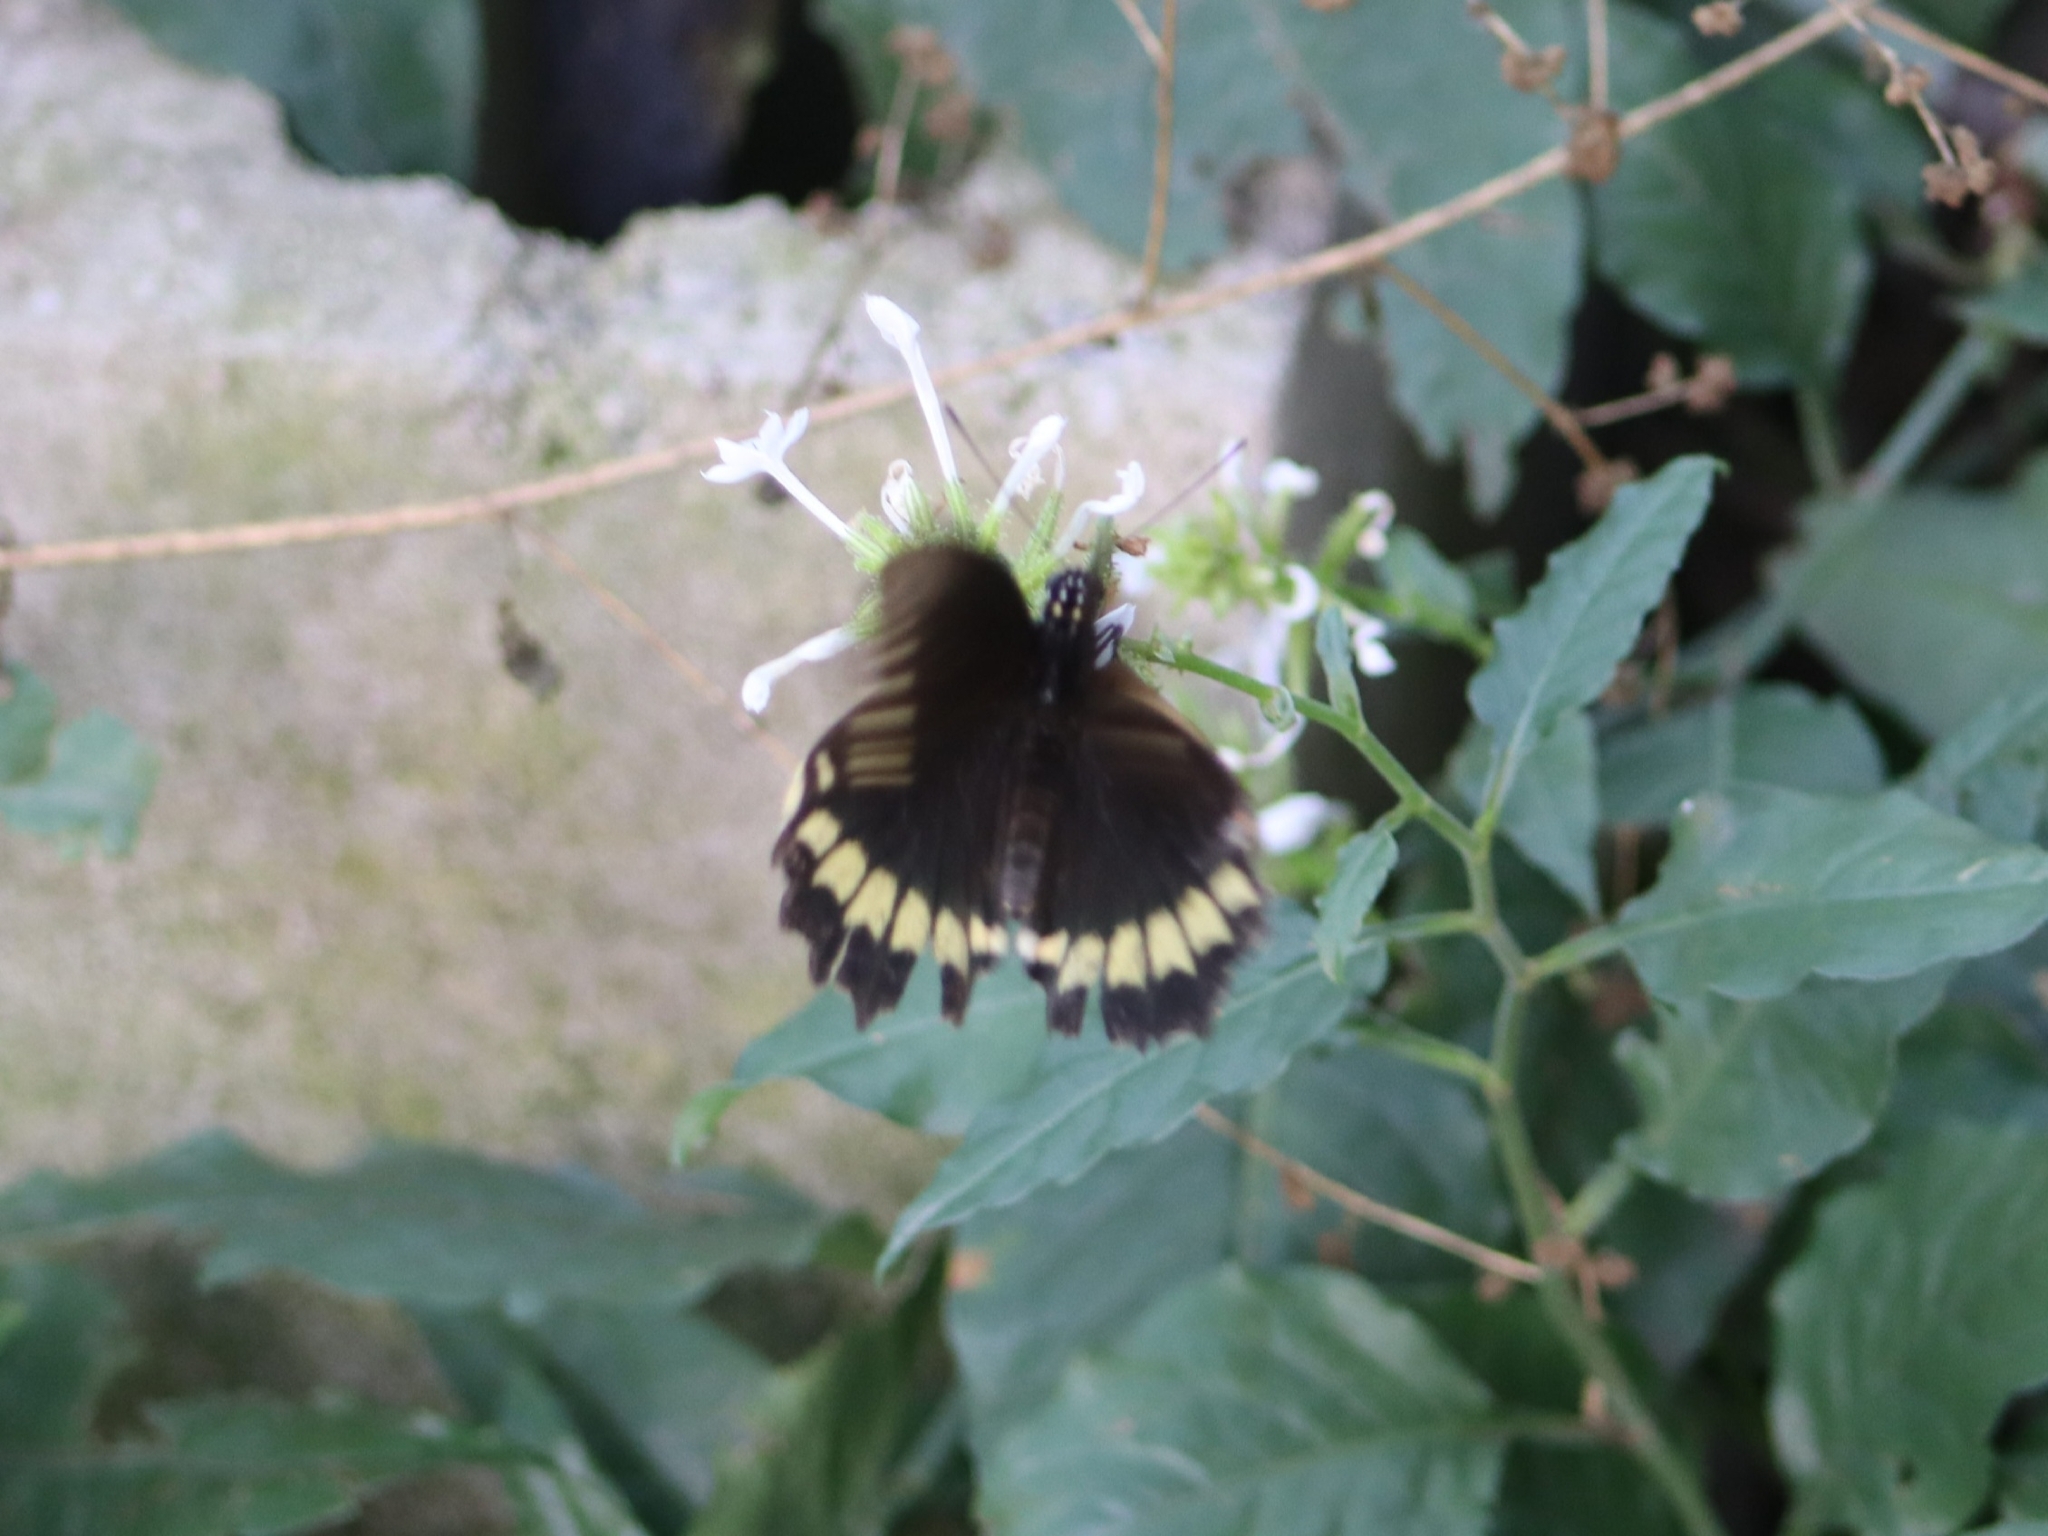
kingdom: Animalia
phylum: Arthropoda
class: Insecta
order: Lepidoptera
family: Papilionidae
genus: Battus
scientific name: Battus polydamas
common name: Polydamas swallowtail
